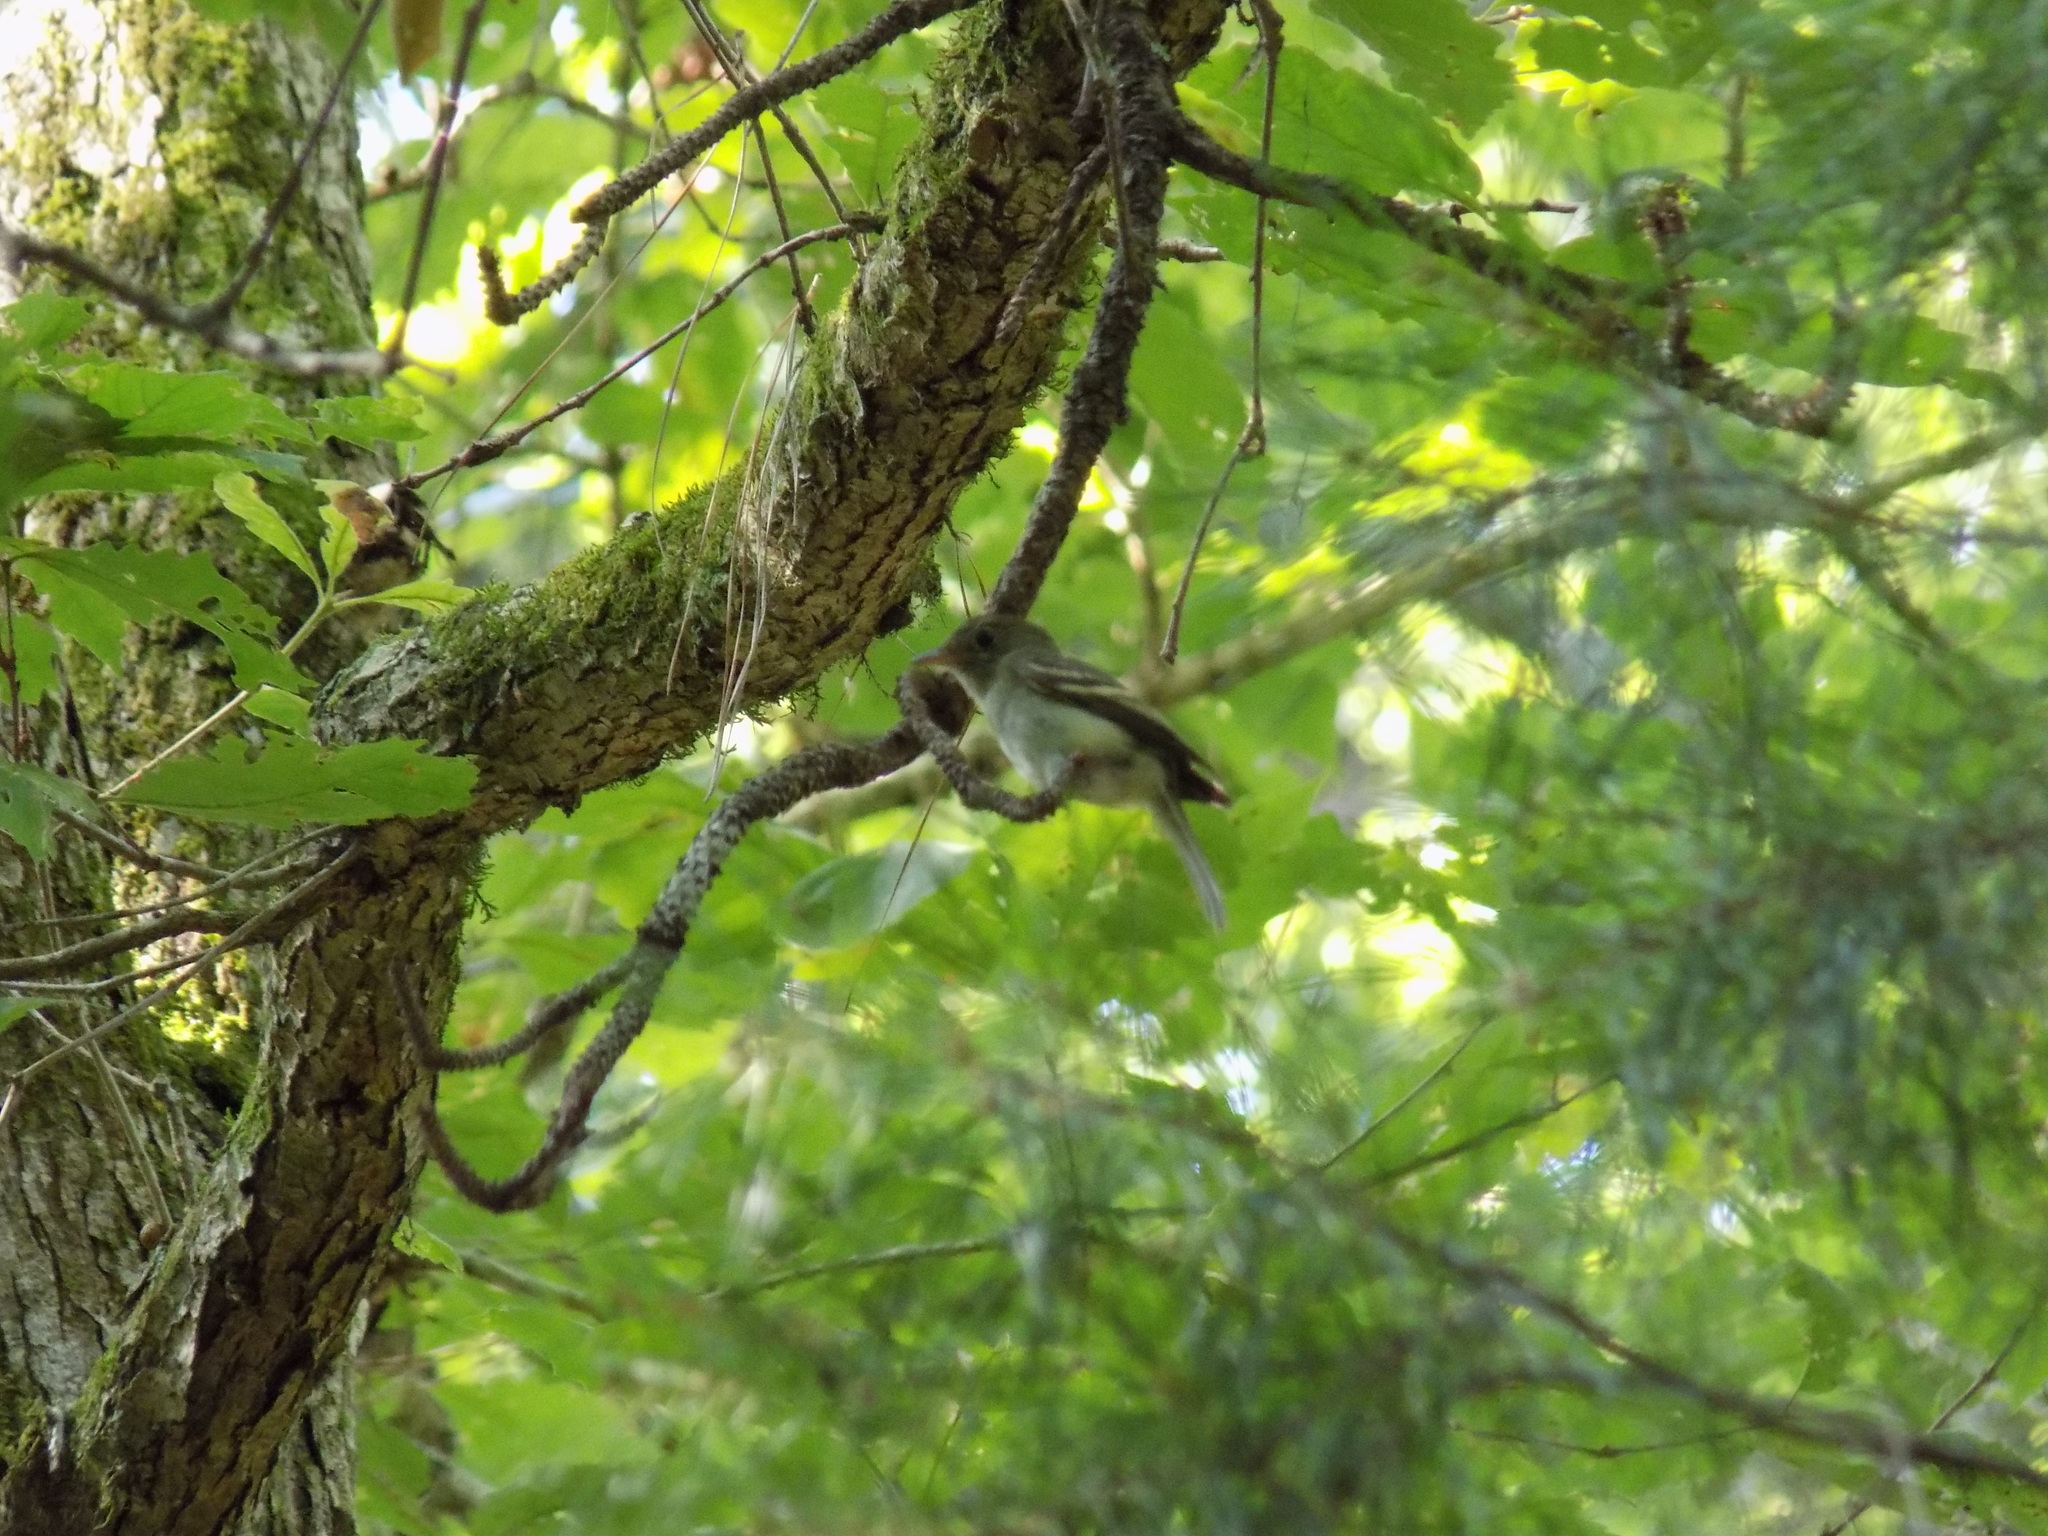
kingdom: Animalia
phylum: Chordata
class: Aves
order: Passeriformes
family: Tyrannidae
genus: Empidonax
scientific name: Empidonax virescens
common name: Acadian flycatcher
